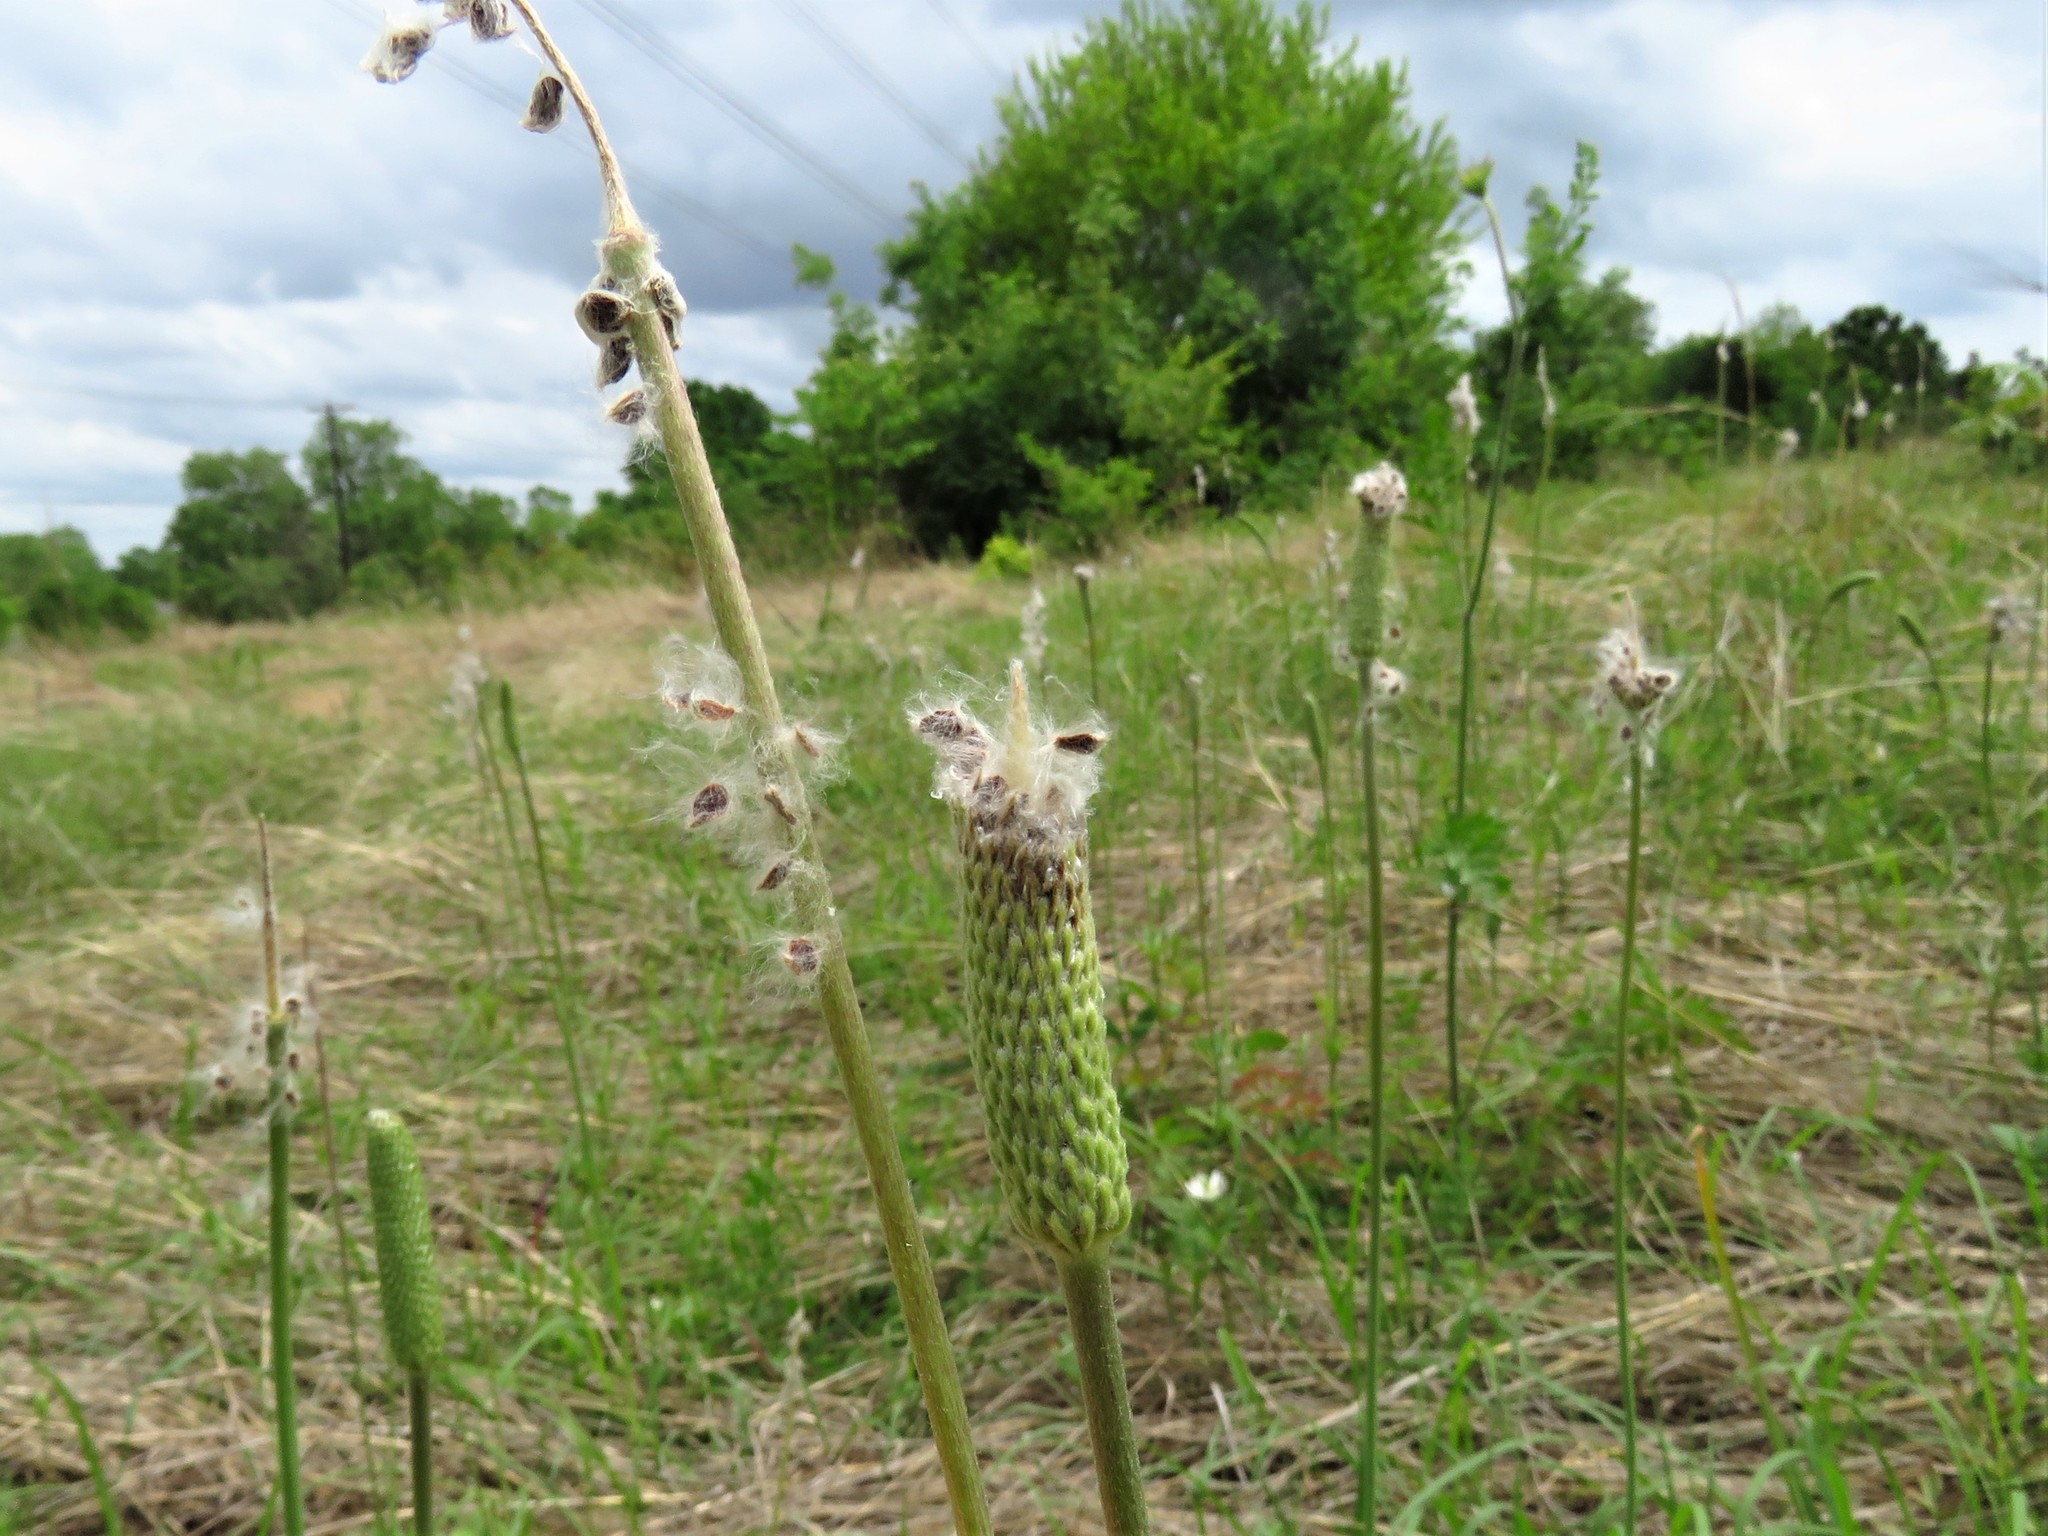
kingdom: Plantae
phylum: Tracheophyta
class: Magnoliopsida
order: Ranunculales
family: Ranunculaceae
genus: Anemone
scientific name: Anemone berlandieri
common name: Ten-petal anemone
